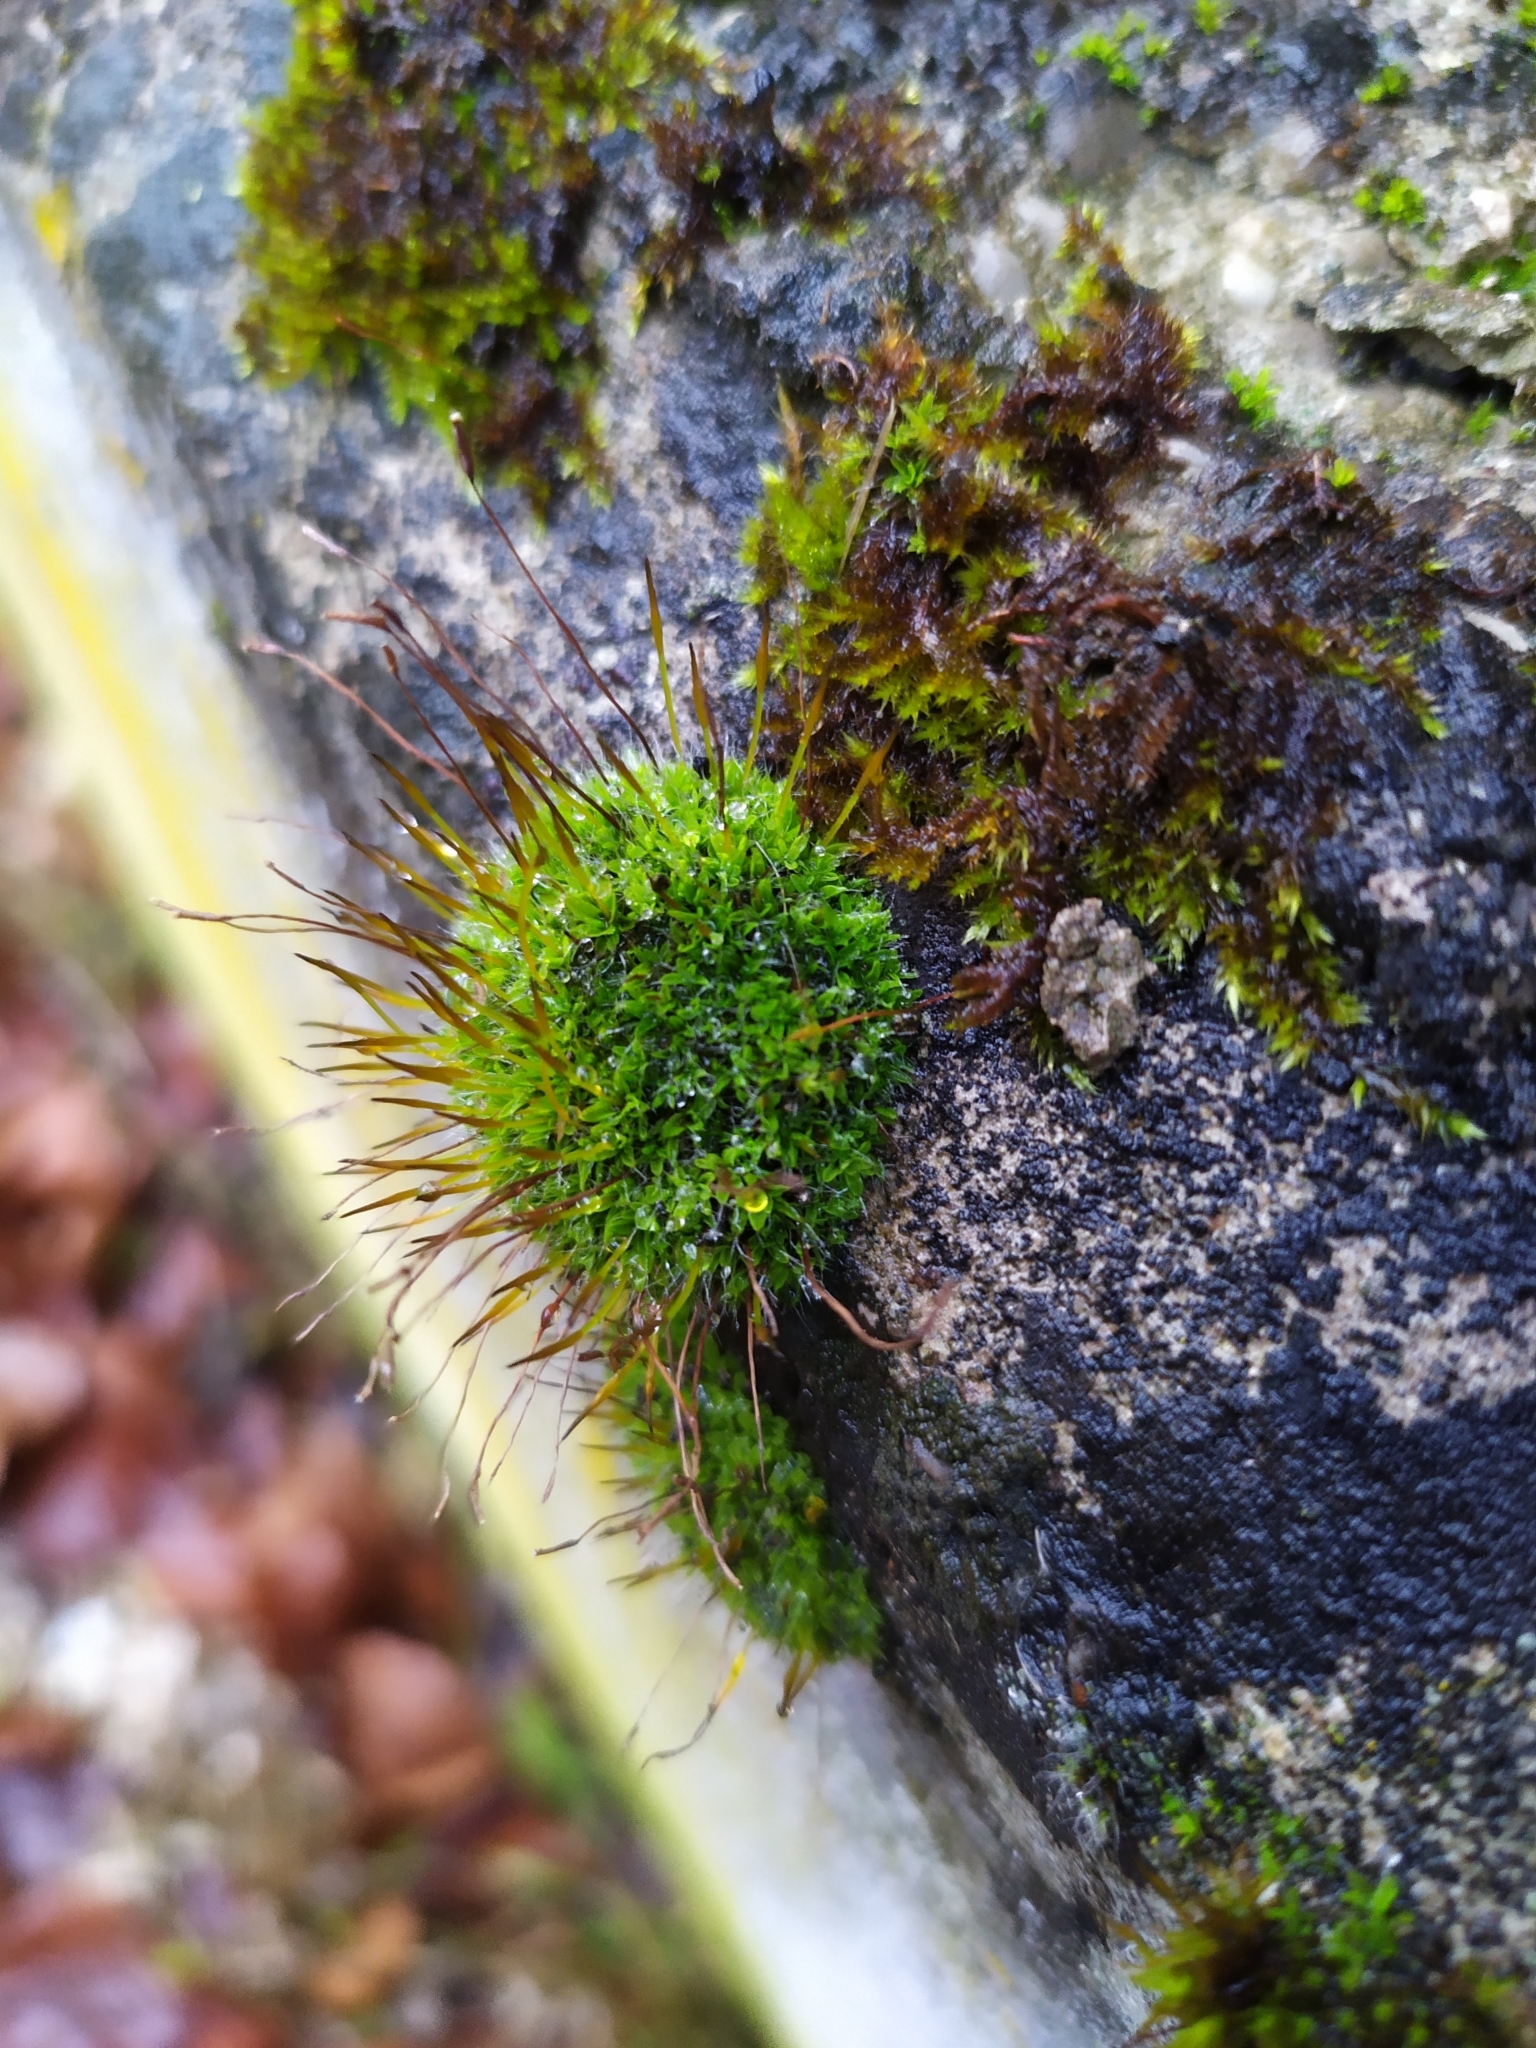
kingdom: Plantae
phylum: Bryophyta
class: Bryopsida
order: Pottiales
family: Pottiaceae
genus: Tortula
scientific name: Tortula muralis
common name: Wall screw-moss
